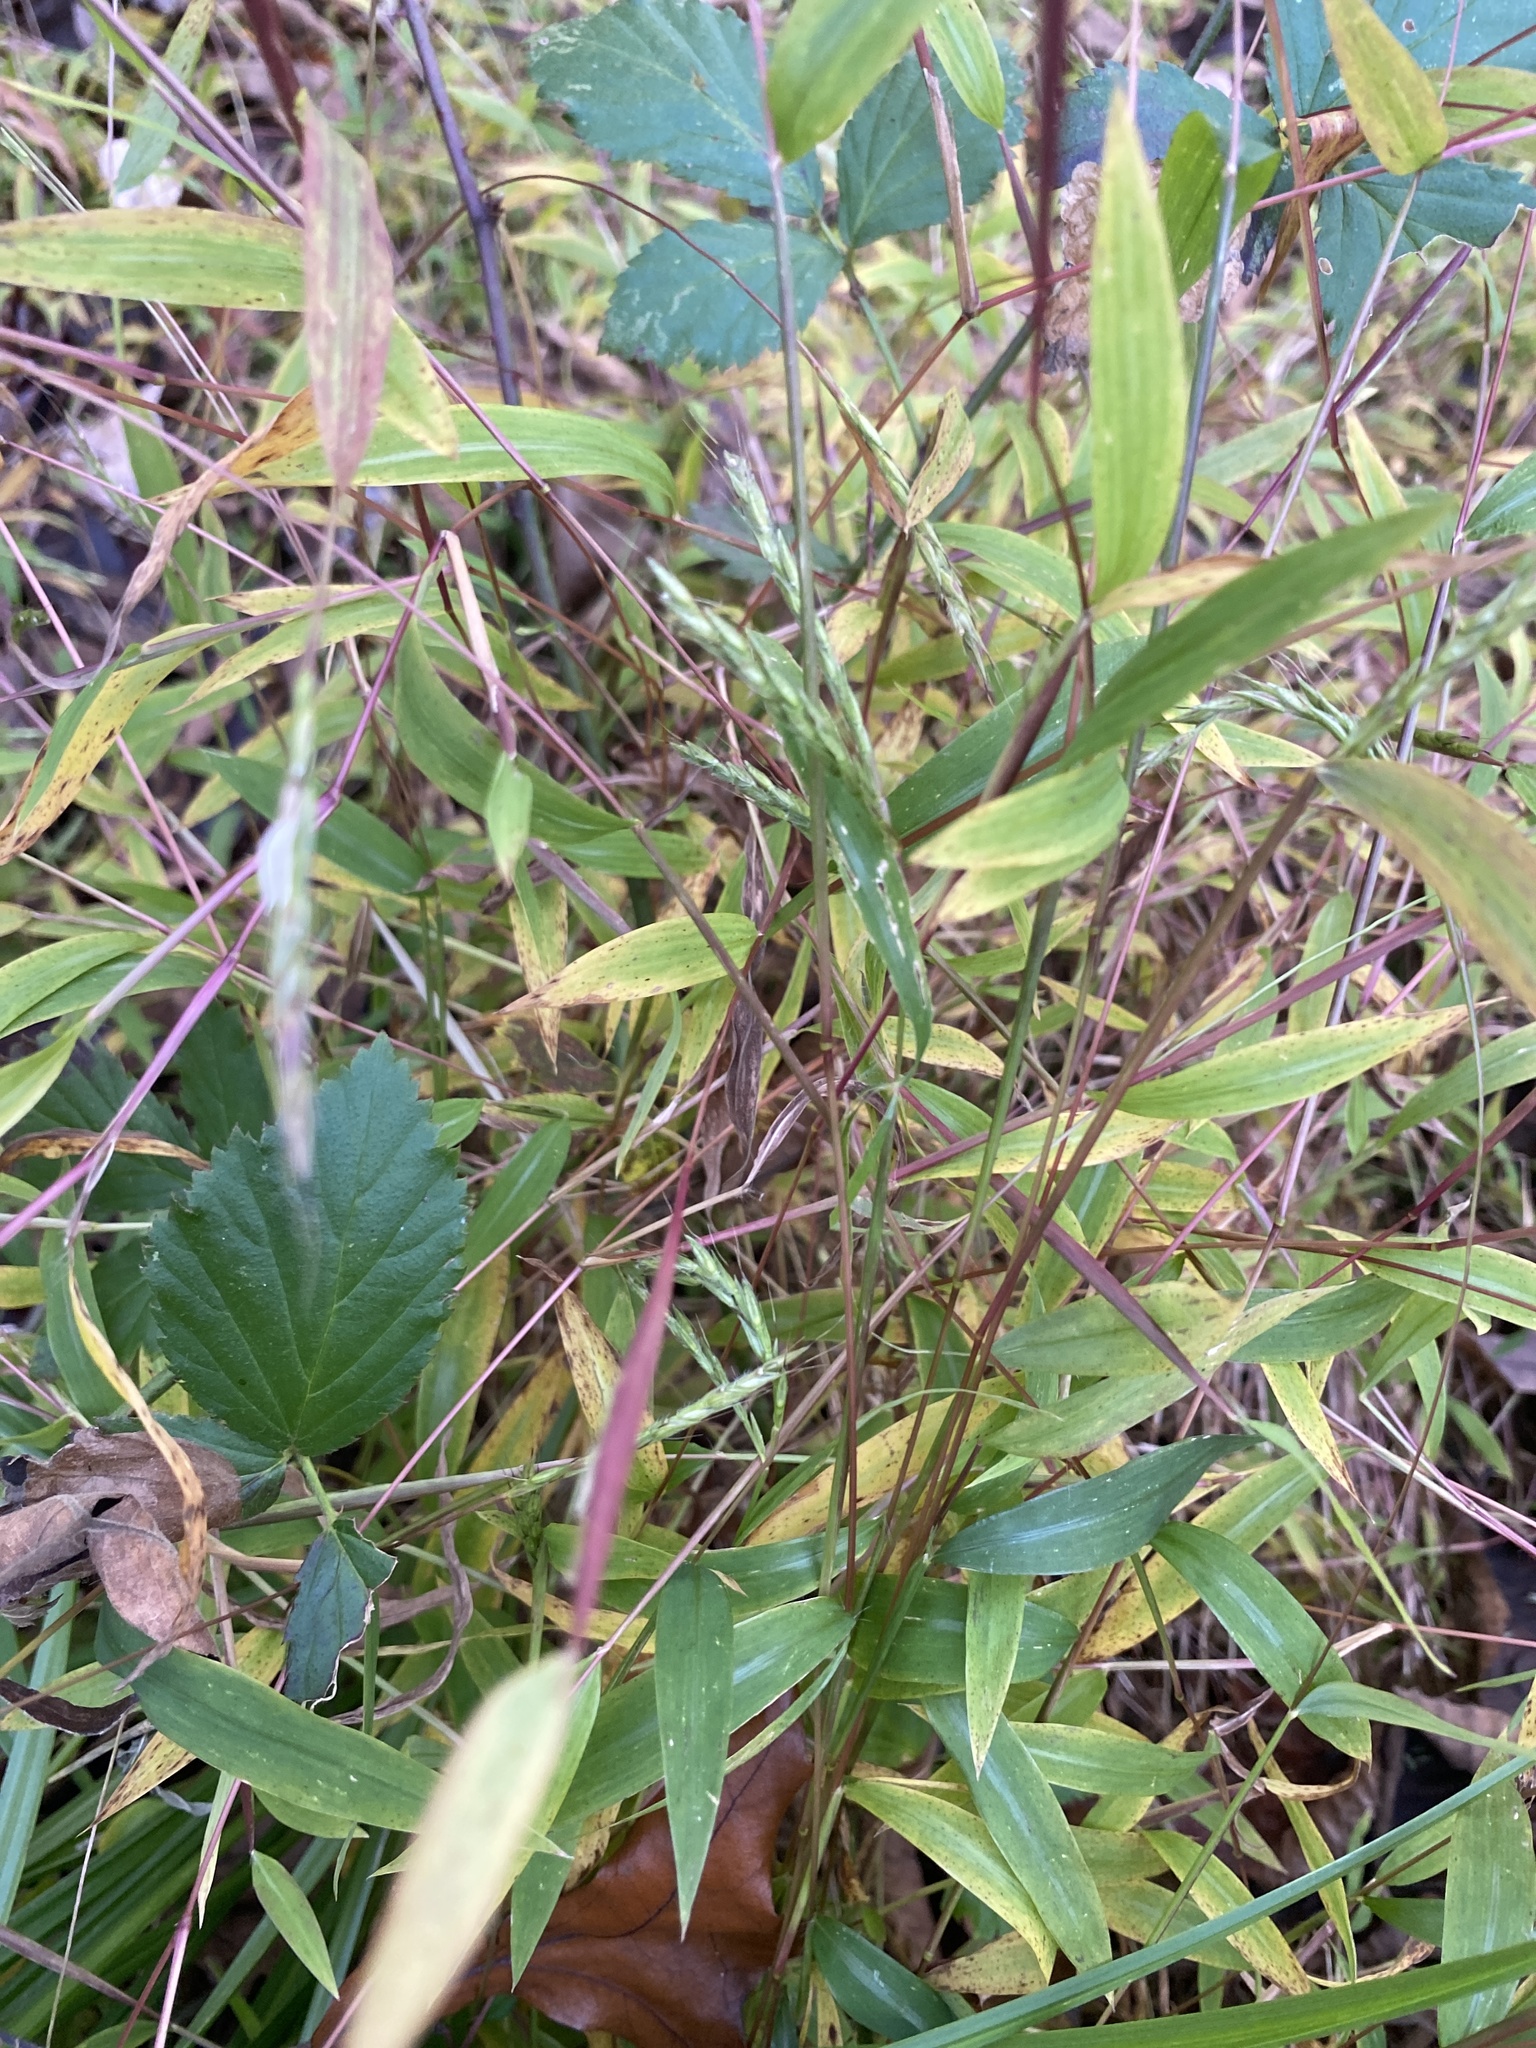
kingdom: Plantae
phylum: Tracheophyta
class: Liliopsida
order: Poales
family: Poaceae
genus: Microstegium
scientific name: Microstegium vimineum
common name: Japanese stiltgrass
